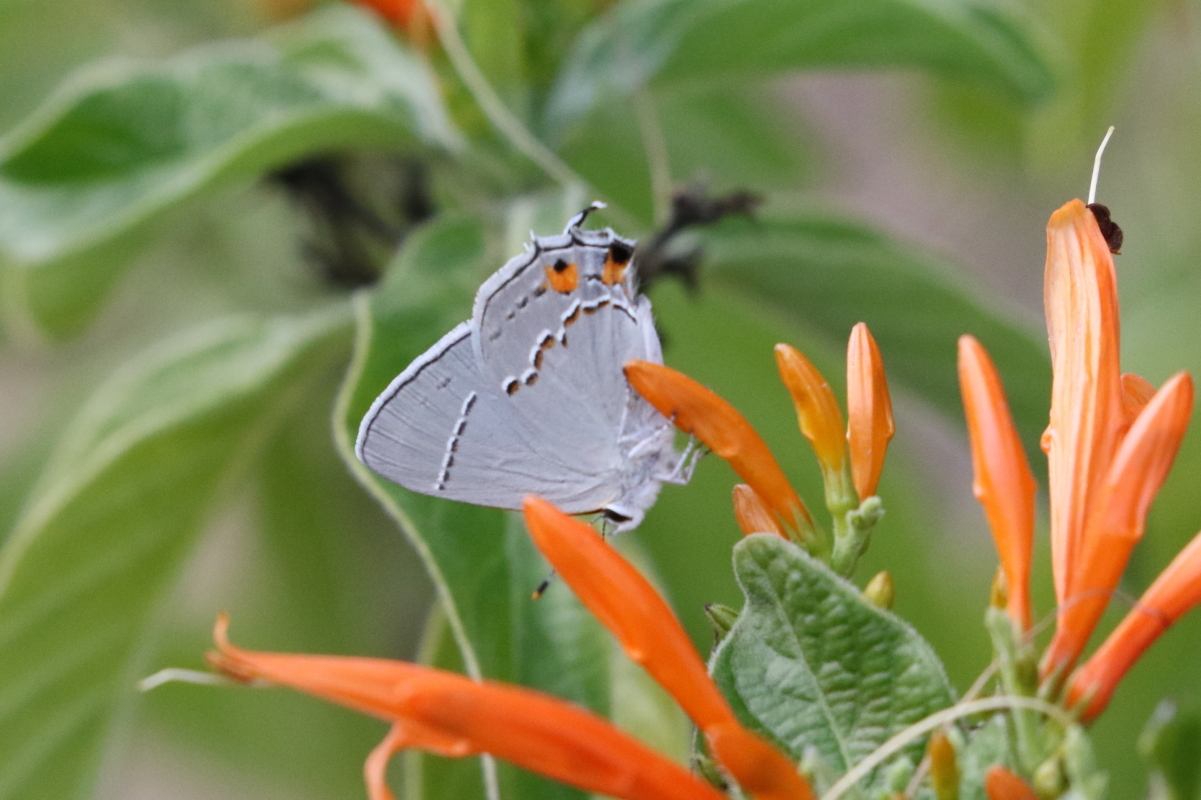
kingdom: Animalia
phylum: Arthropoda
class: Insecta
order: Lepidoptera
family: Lycaenidae
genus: Strymon
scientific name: Strymon melinus
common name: Gray hairstreak
